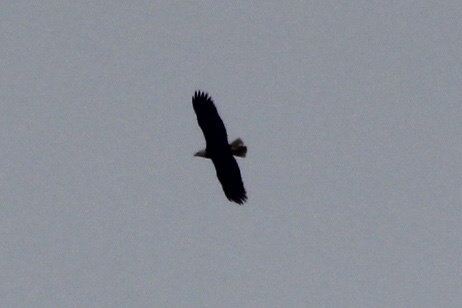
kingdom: Animalia
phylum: Chordata
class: Aves
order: Accipitriformes
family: Accipitridae
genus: Haliaeetus
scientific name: Haliaeetus leucocephalus
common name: Bald eagle
